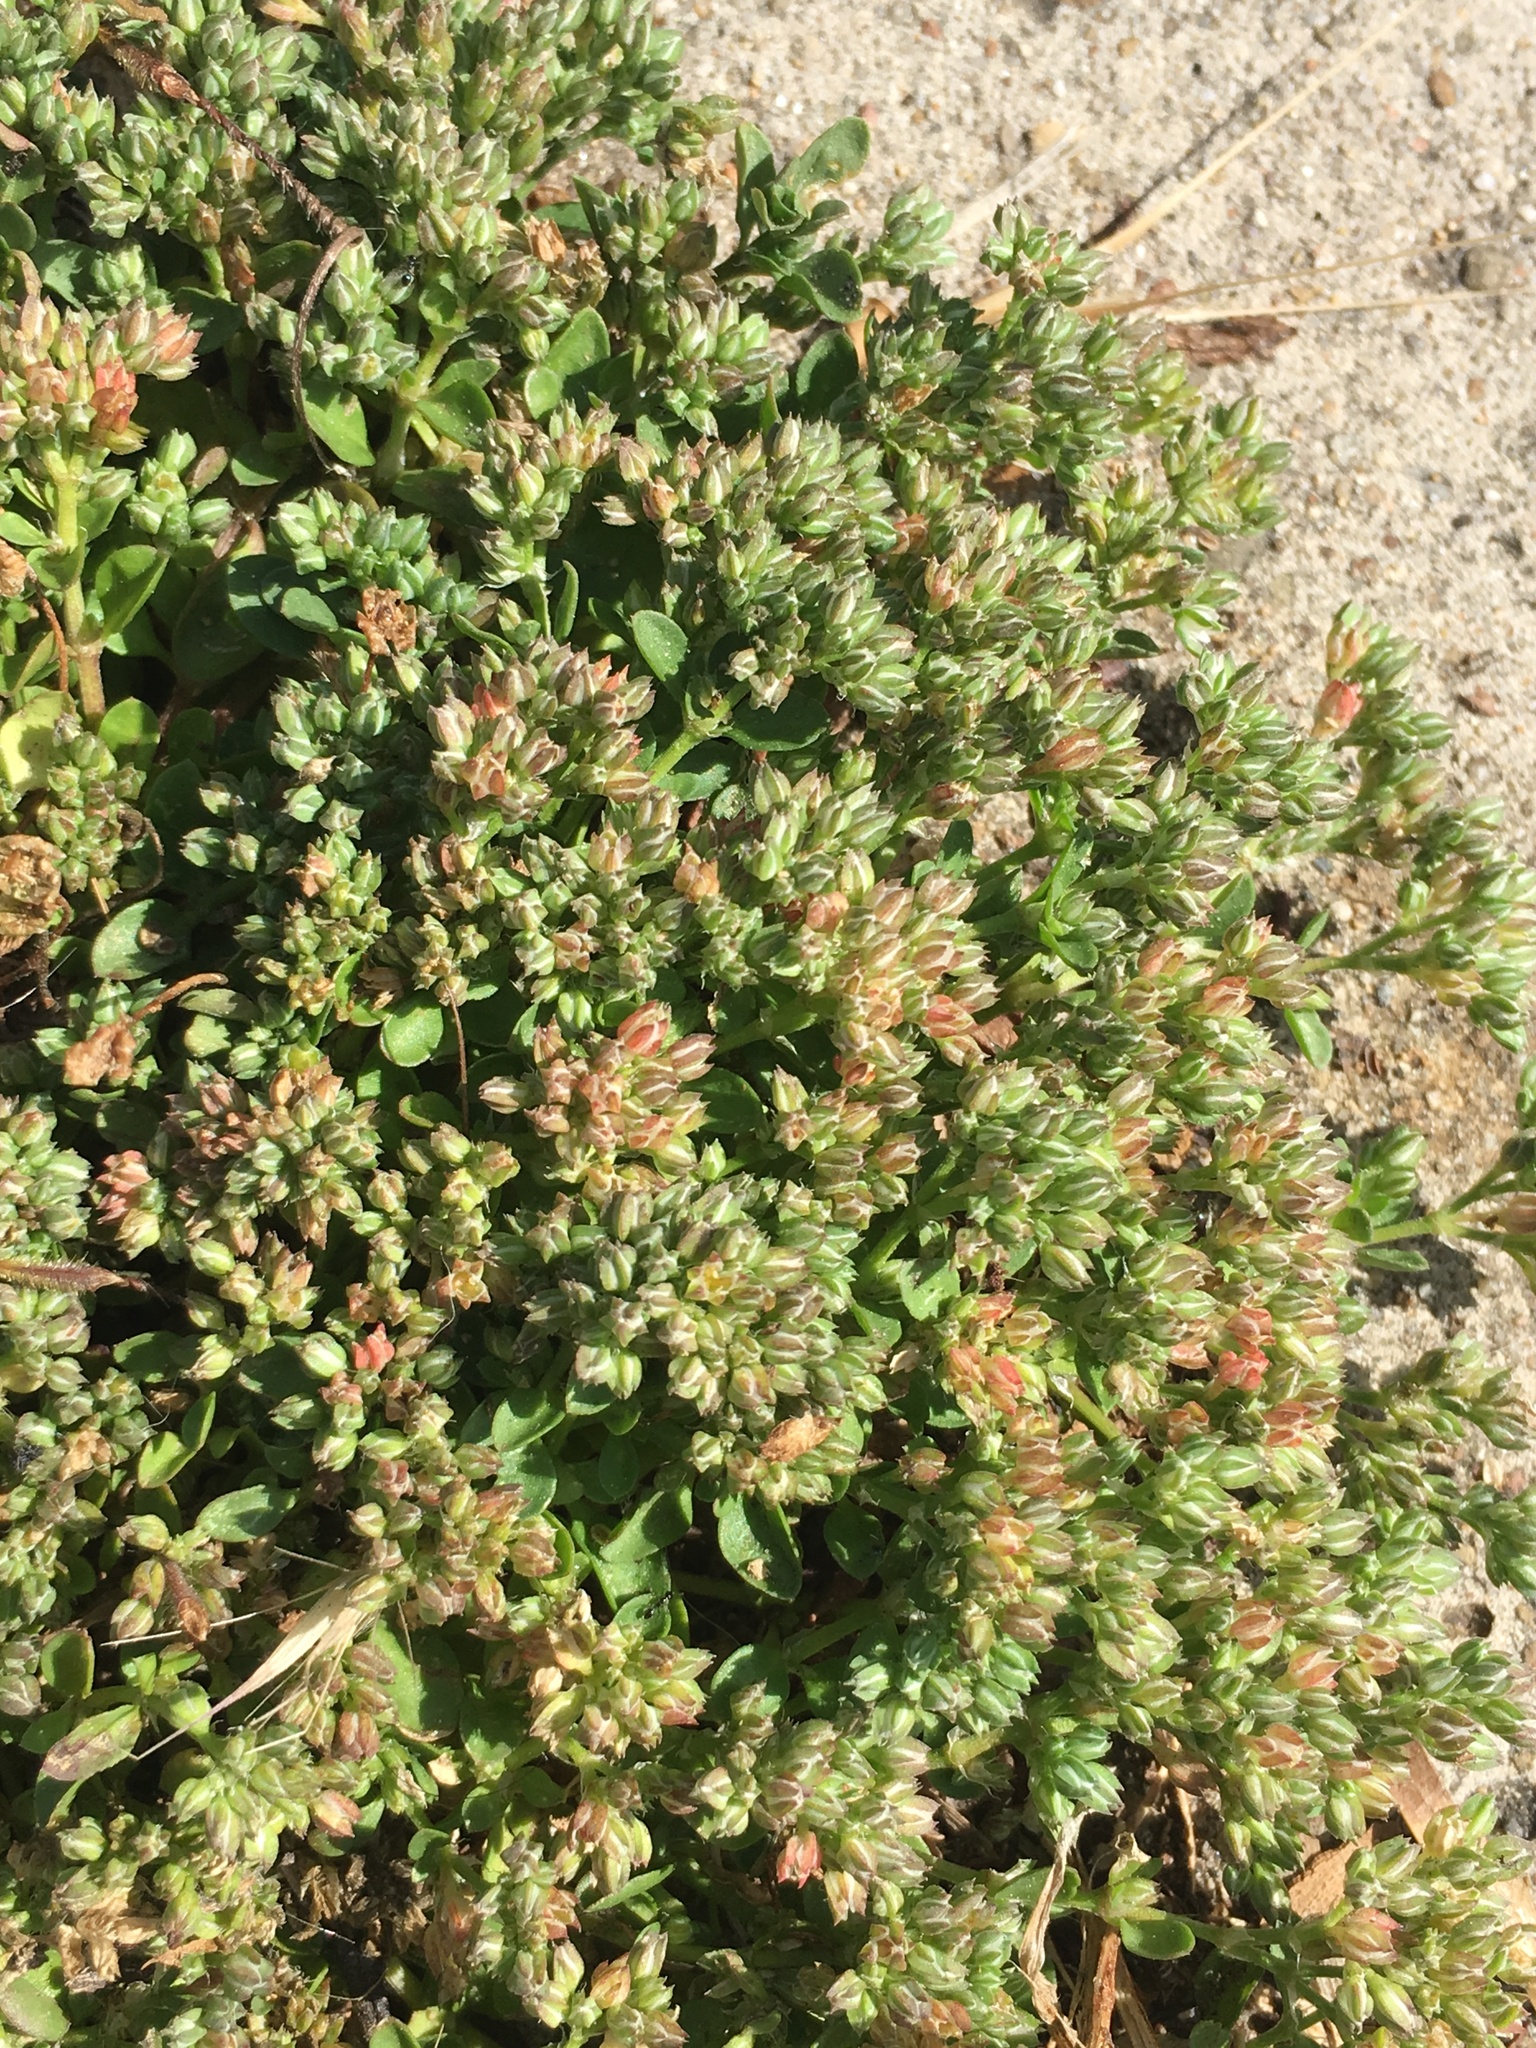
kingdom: Plantae
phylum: Tracheophyta
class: Magnoliopsida
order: Caryophyllales
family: Caryophyllaceae
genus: Polycarpon
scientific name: Polycarpon tetraphyllum
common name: Four-leaved all-seed
